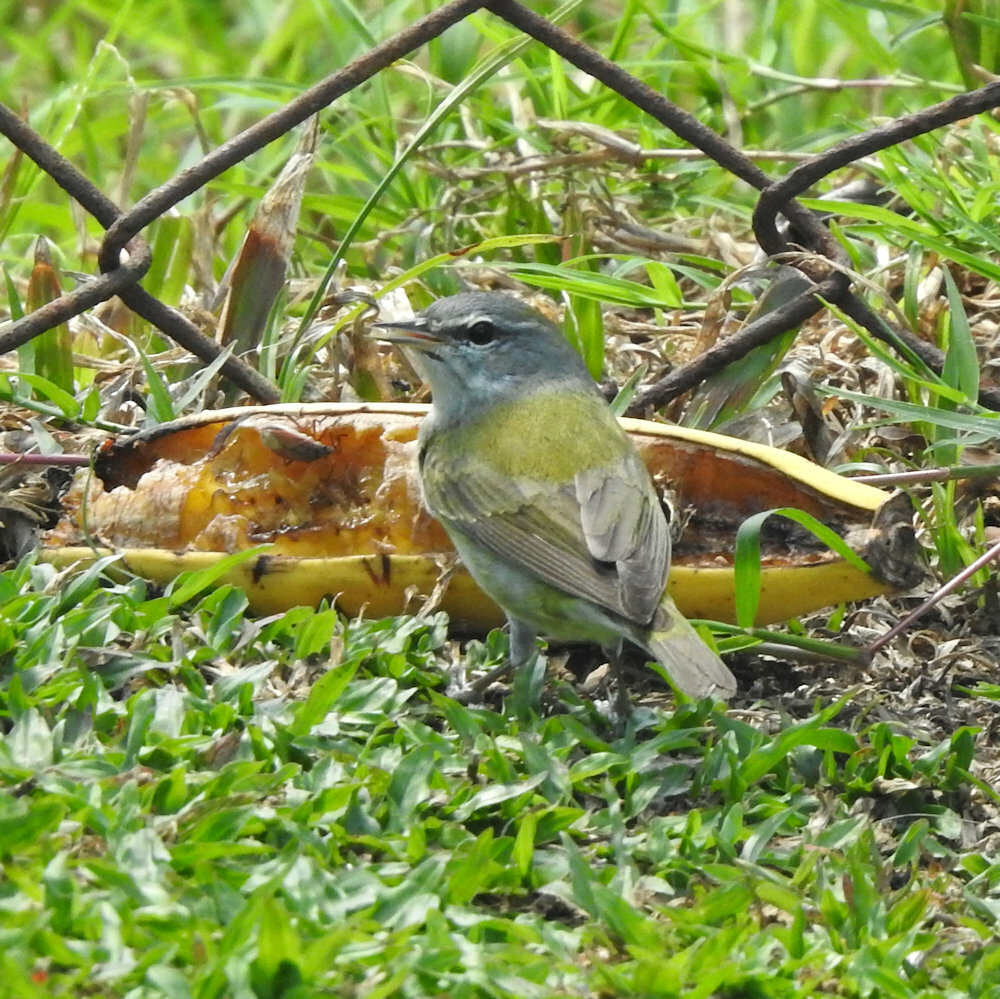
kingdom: Animalia
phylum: Chordata
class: Aves
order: Passeriformes
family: Parulidae
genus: Leiothlypis
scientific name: Leiothlypis peregrina
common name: Tennessee warbler
